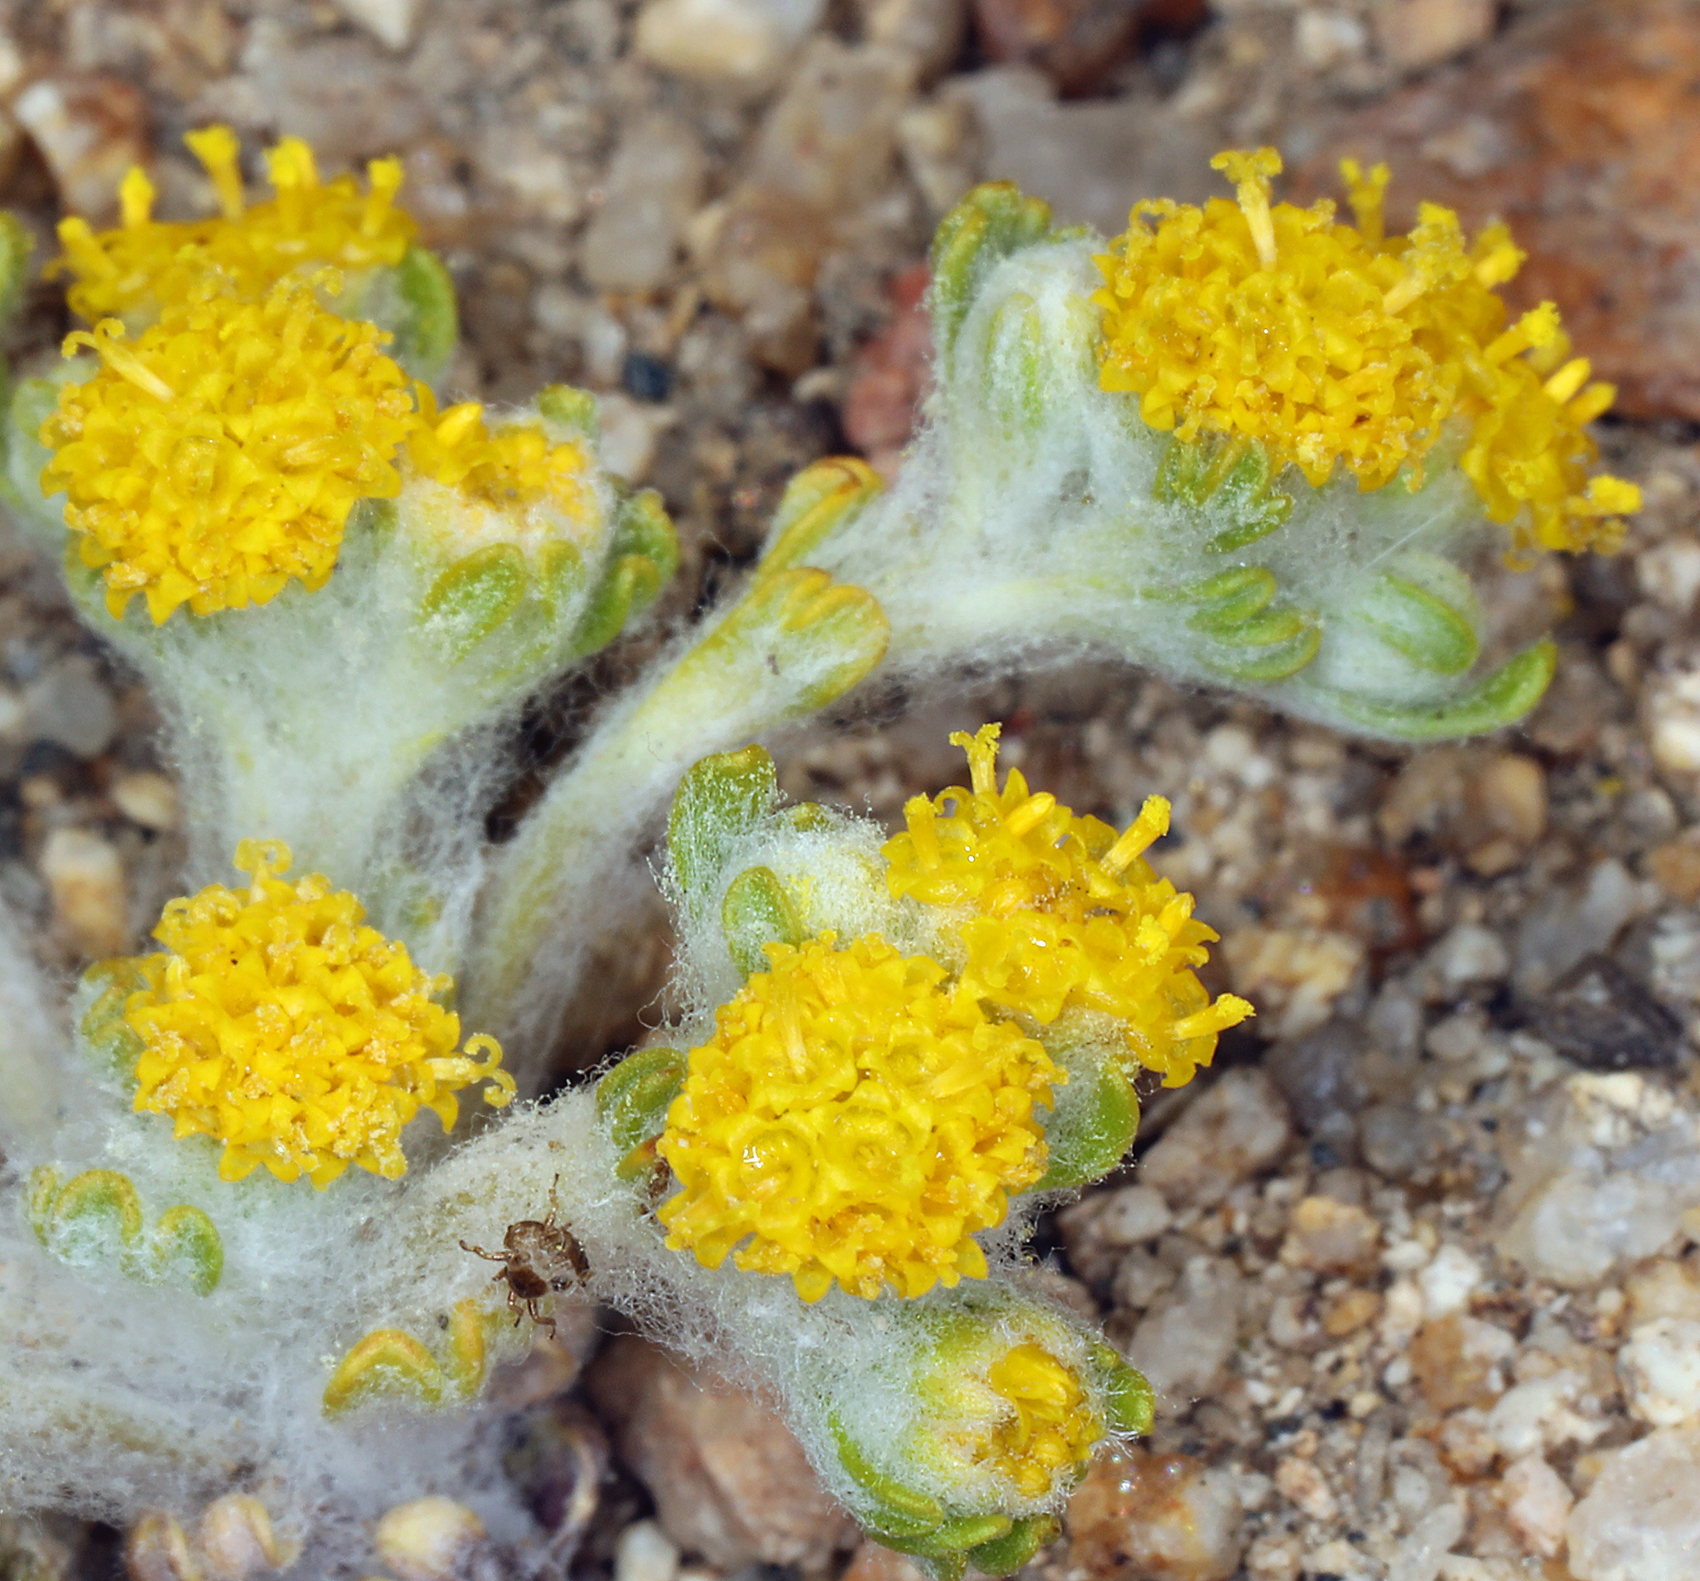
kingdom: Plantae
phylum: Tracheophyta
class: Magnoliopsida
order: Asterales
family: Asteraceae
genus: Eriophyllum
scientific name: Eriophyllum pringlei
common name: Pringle's woolly-sunflower
